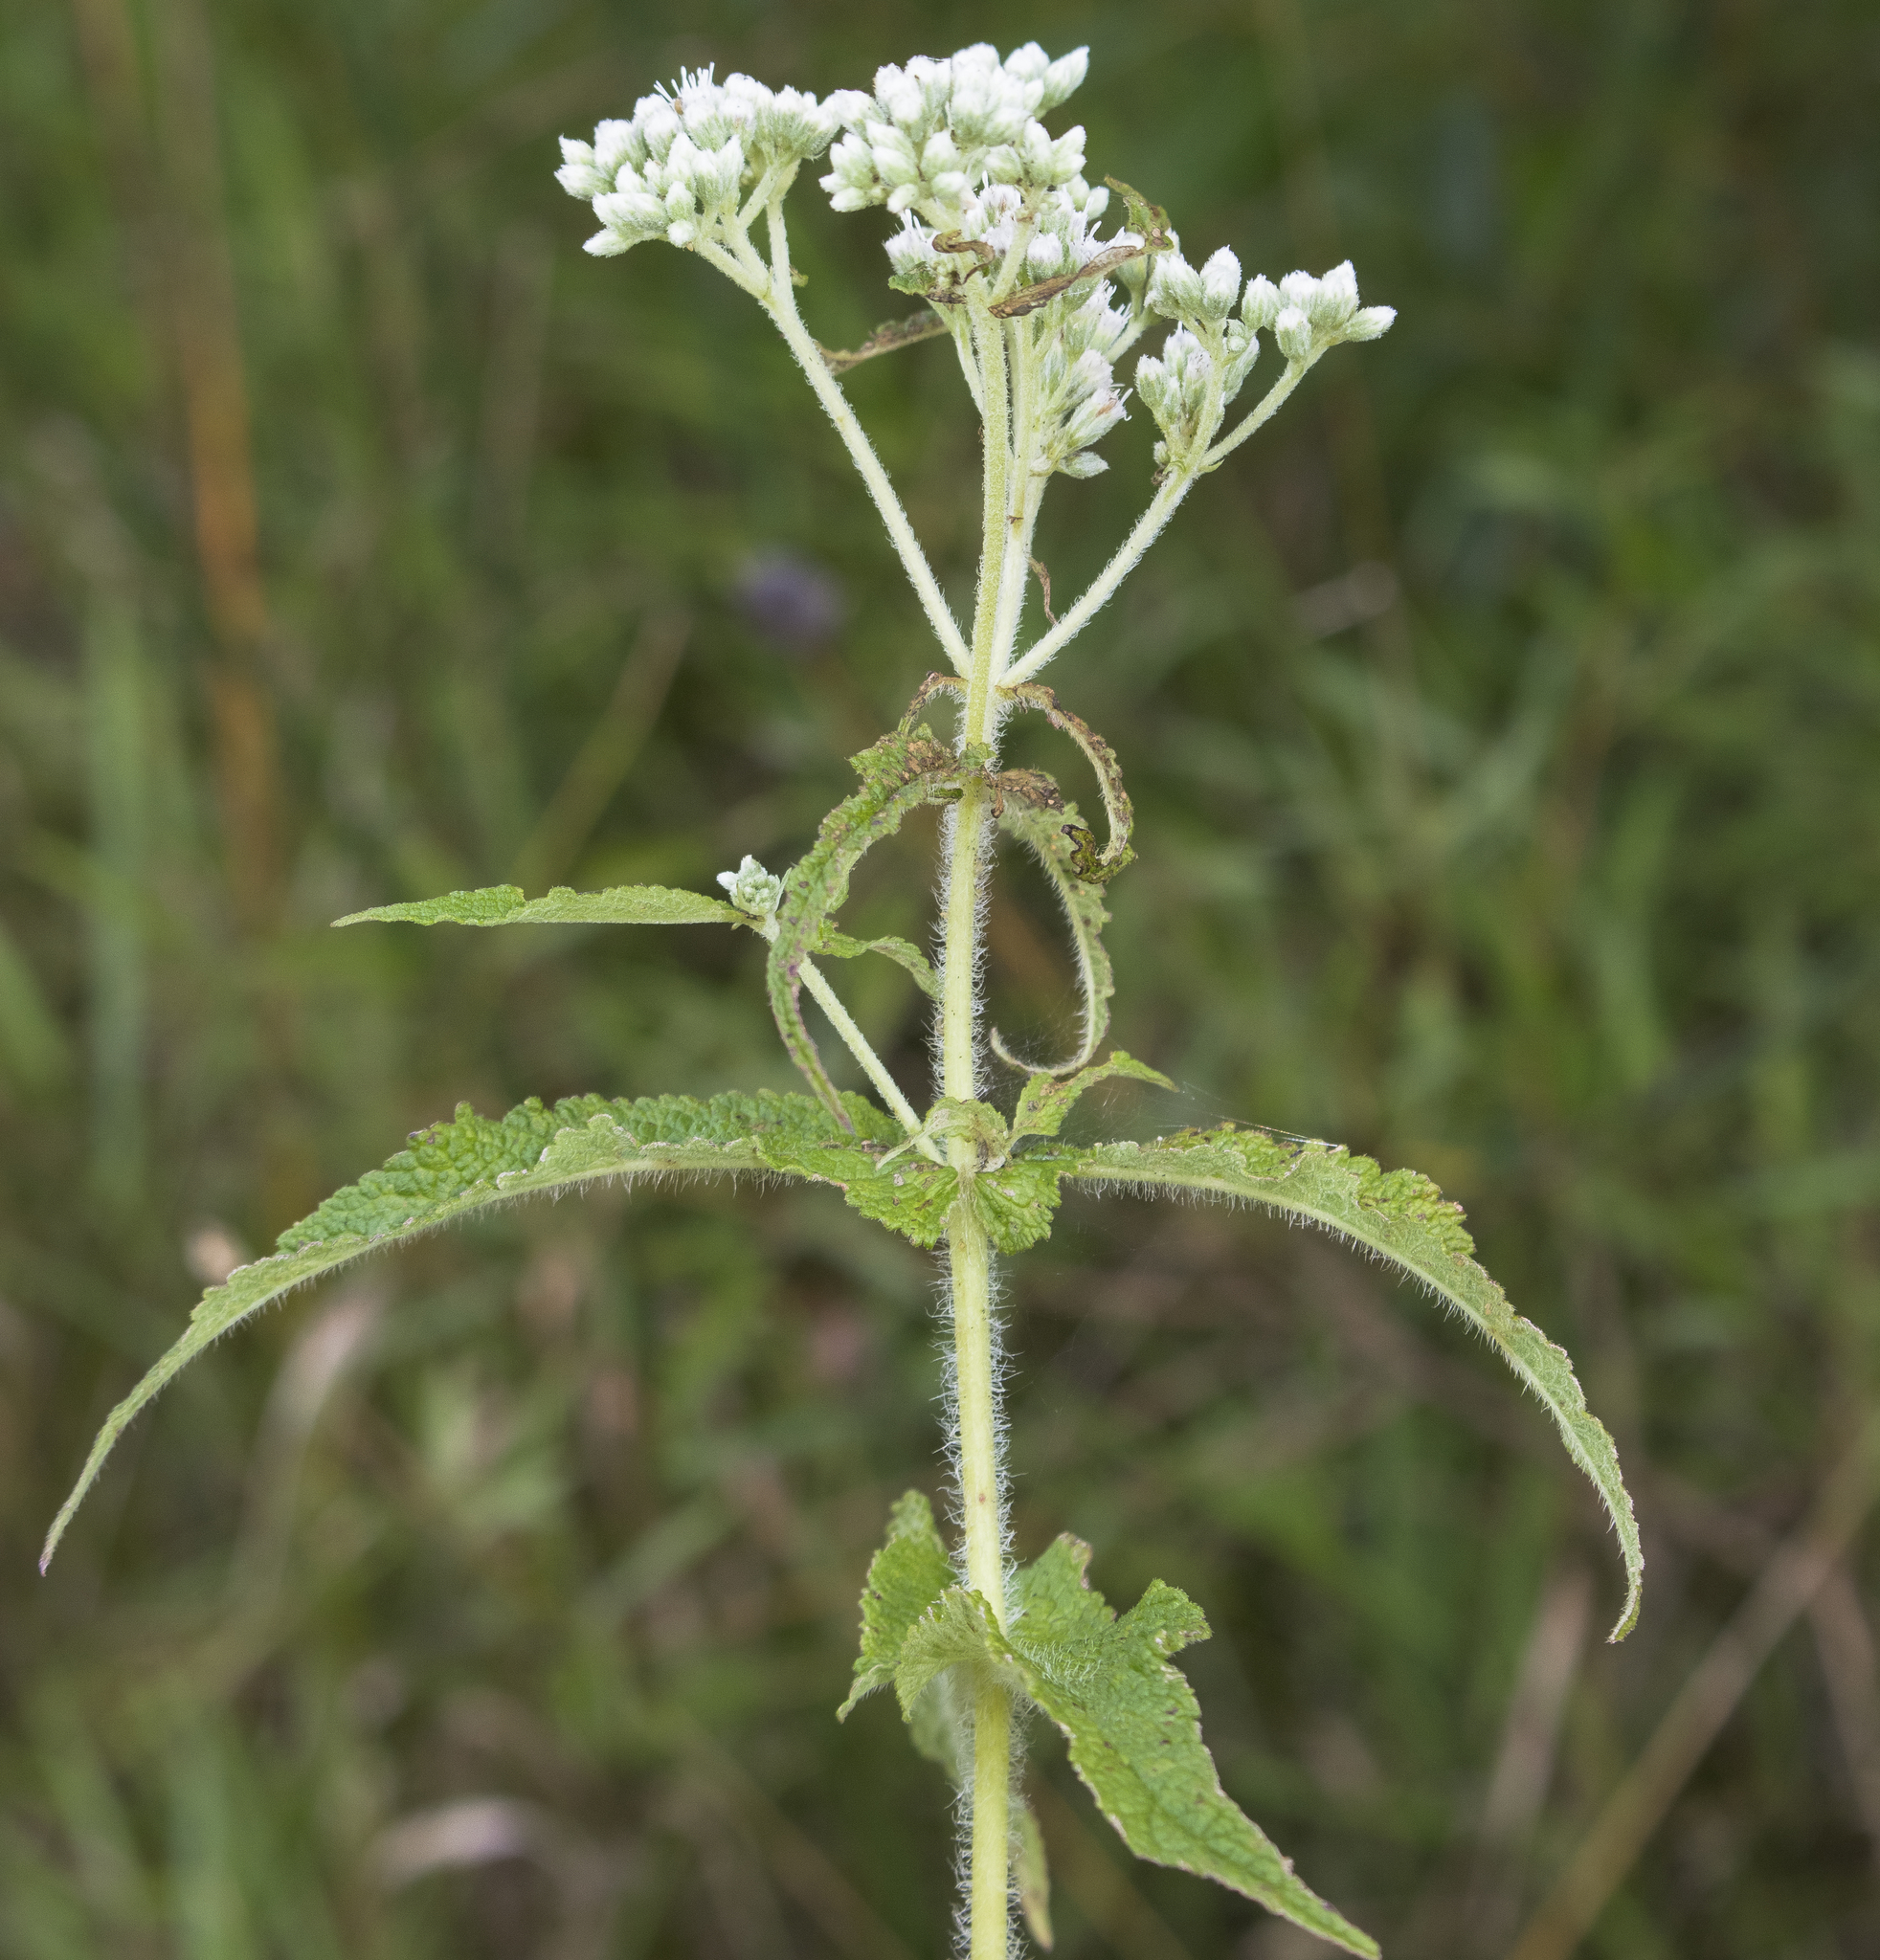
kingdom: Plantae
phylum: Tracheophyta
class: Magnoliopsida
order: Asterales
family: Asteraceae
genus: Eupatorium
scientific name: Eupatorium perfoliatum
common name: Boneset
